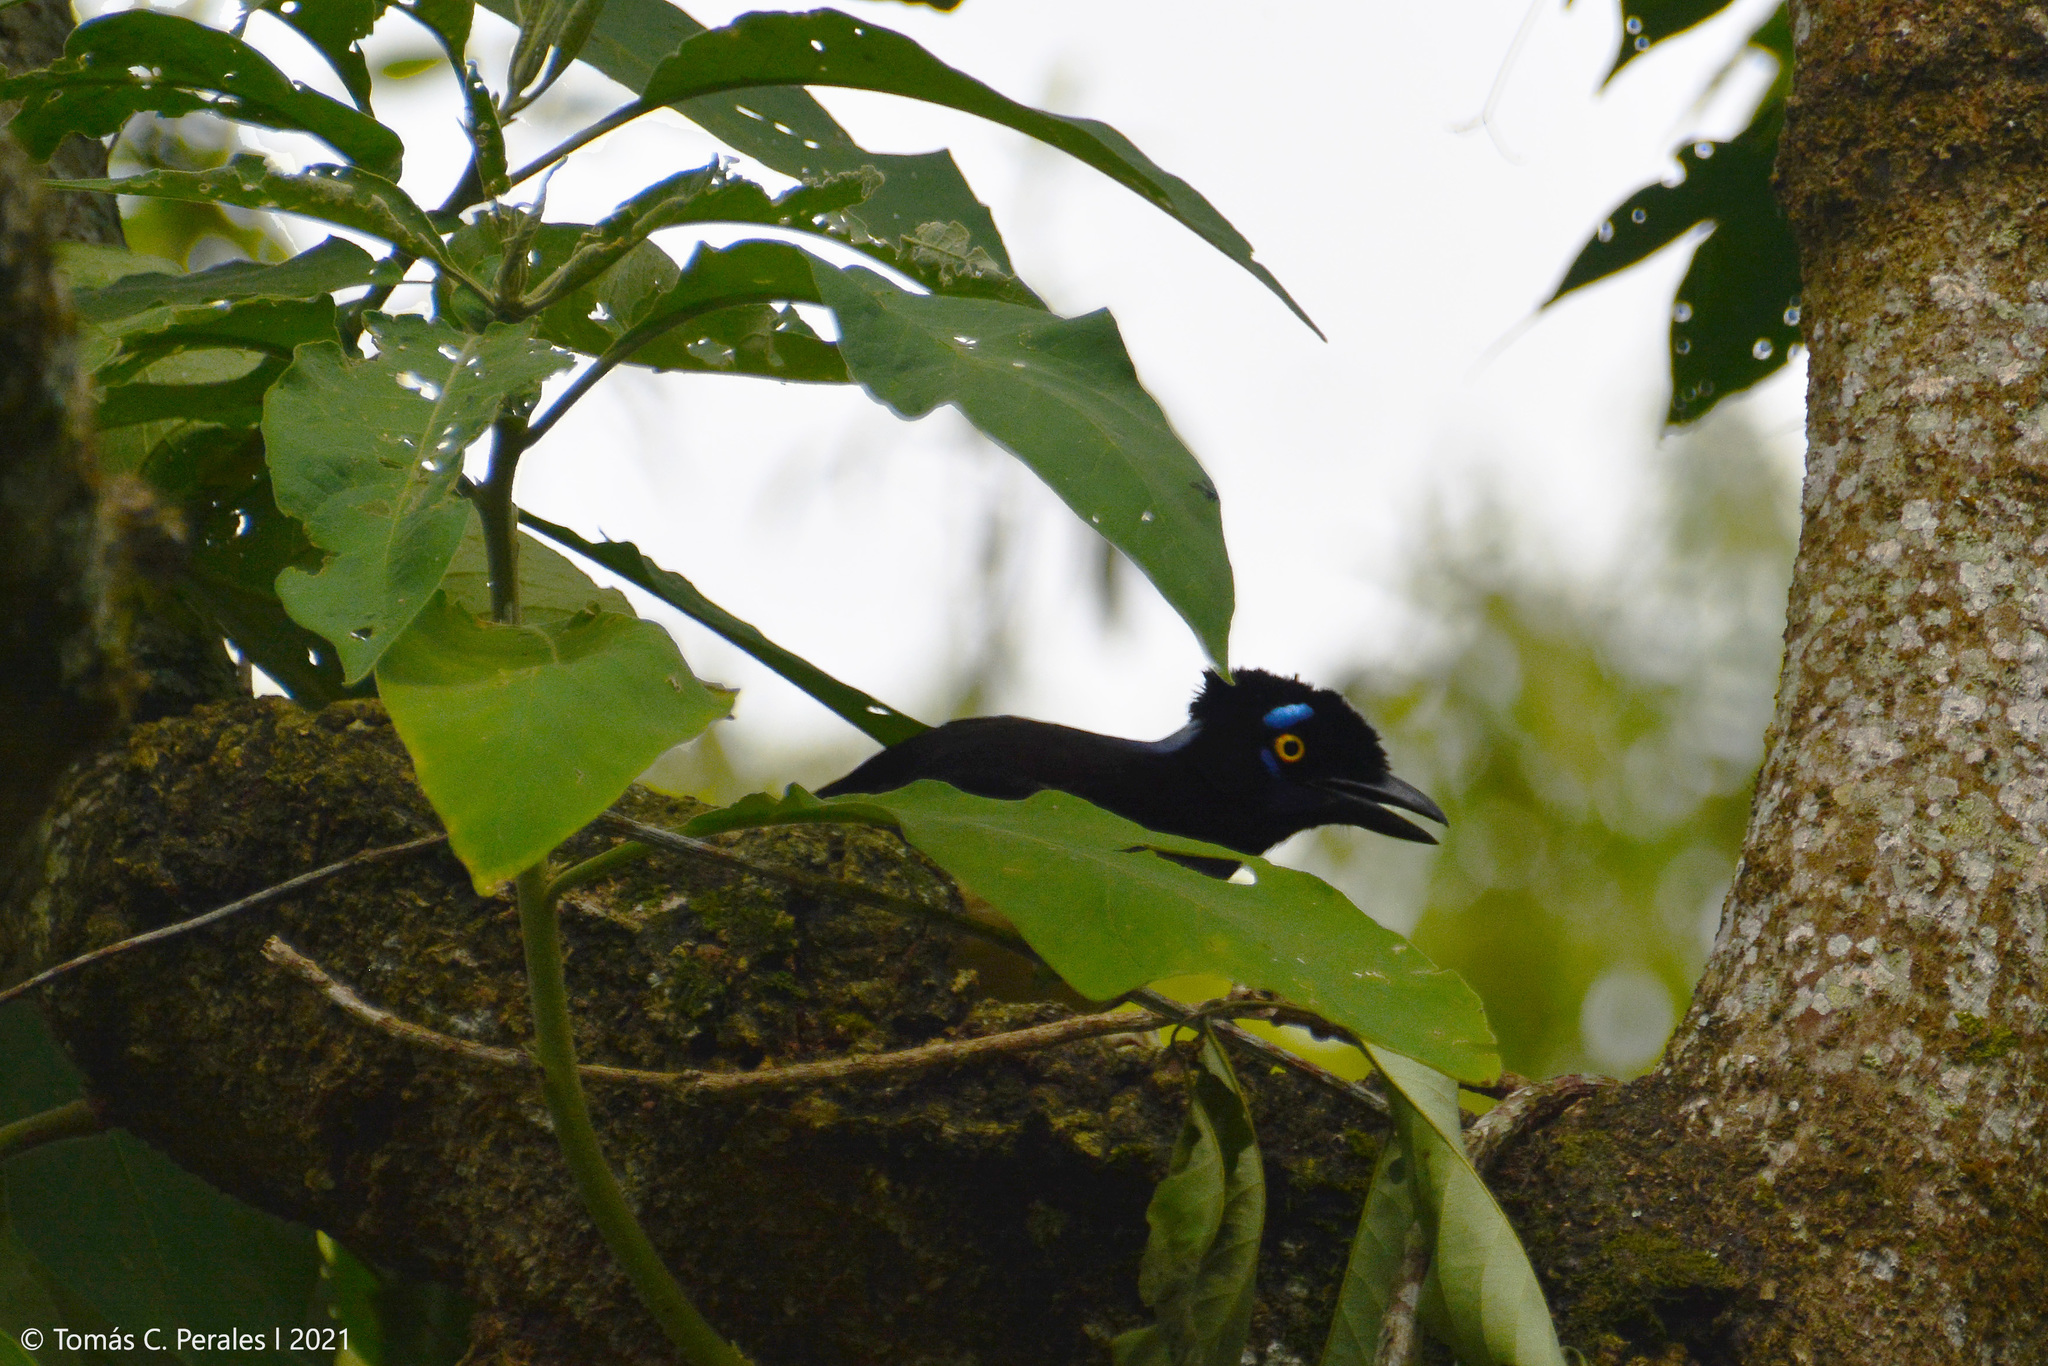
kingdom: Animalia
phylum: Chordata
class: Aves
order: Passeriformes
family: Corvidae
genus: Cyanocorax
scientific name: Cyanocorax chrysops
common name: Plush-crested jay
